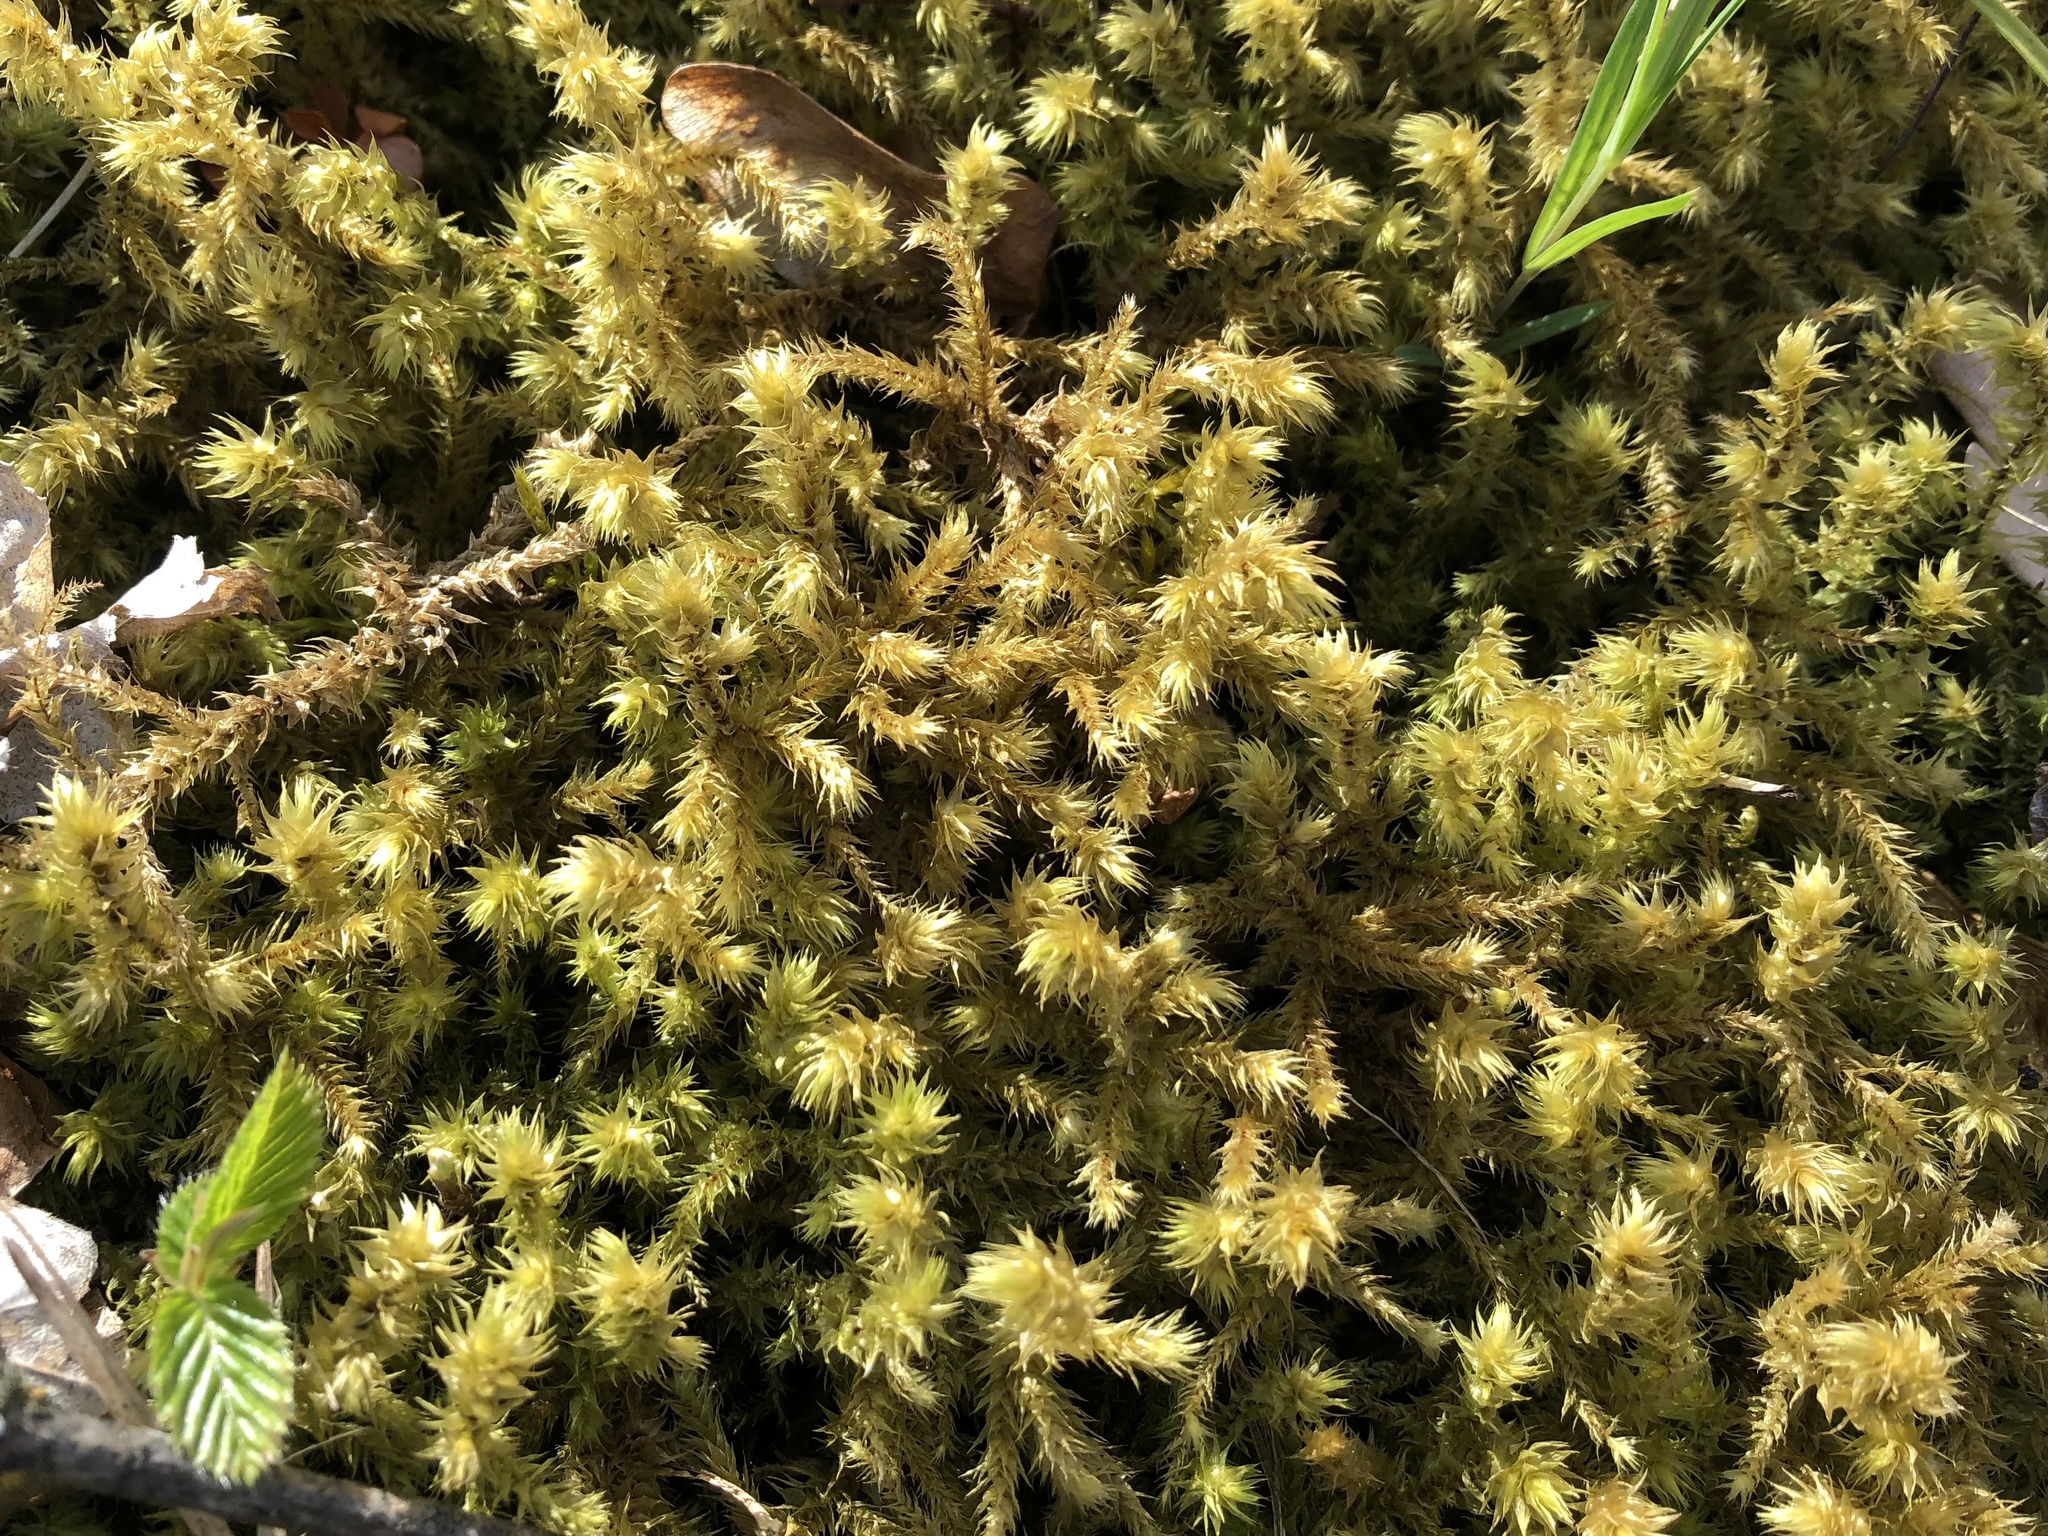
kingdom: Plantae
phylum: Bryophyta
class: Bryopsida
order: Hypnales
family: Hylocomiaceae
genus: Hylocomiadelphus
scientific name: Hylocomiadelphus triquetrus
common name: Rough goose neck moss
